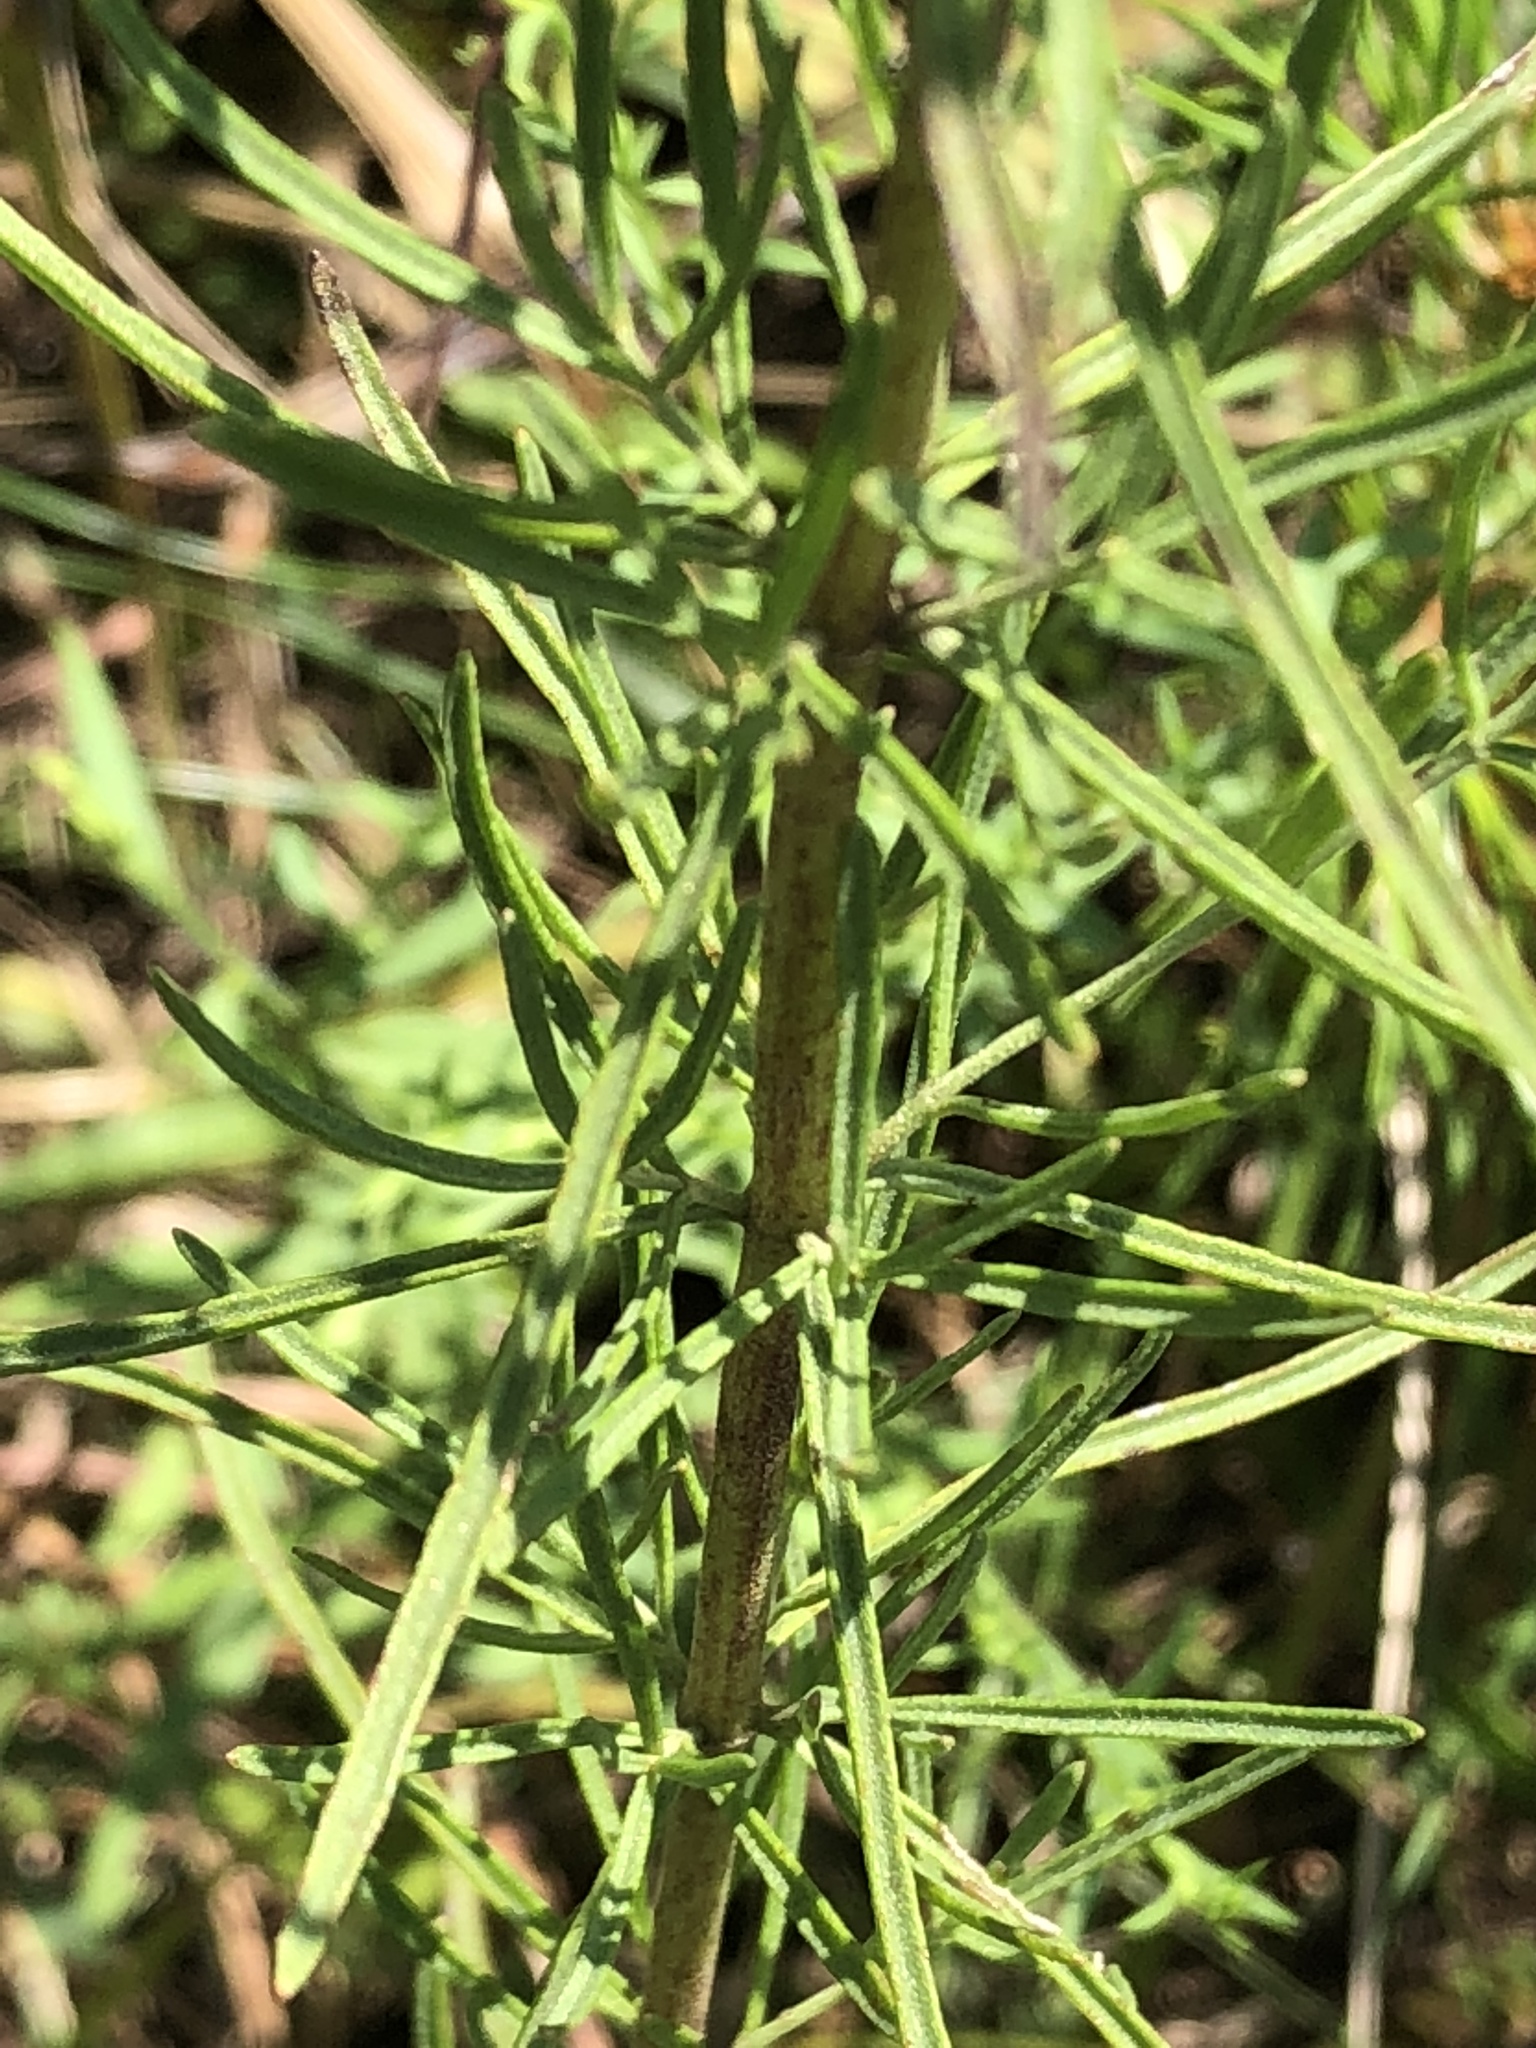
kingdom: Plantae
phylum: Tracheophyta
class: Magnoliopsida
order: Asterales
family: Asteraceae
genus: Eupatorium
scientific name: Eupatorium hyssopifolium
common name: Hyssop-leaf thoroughwort
